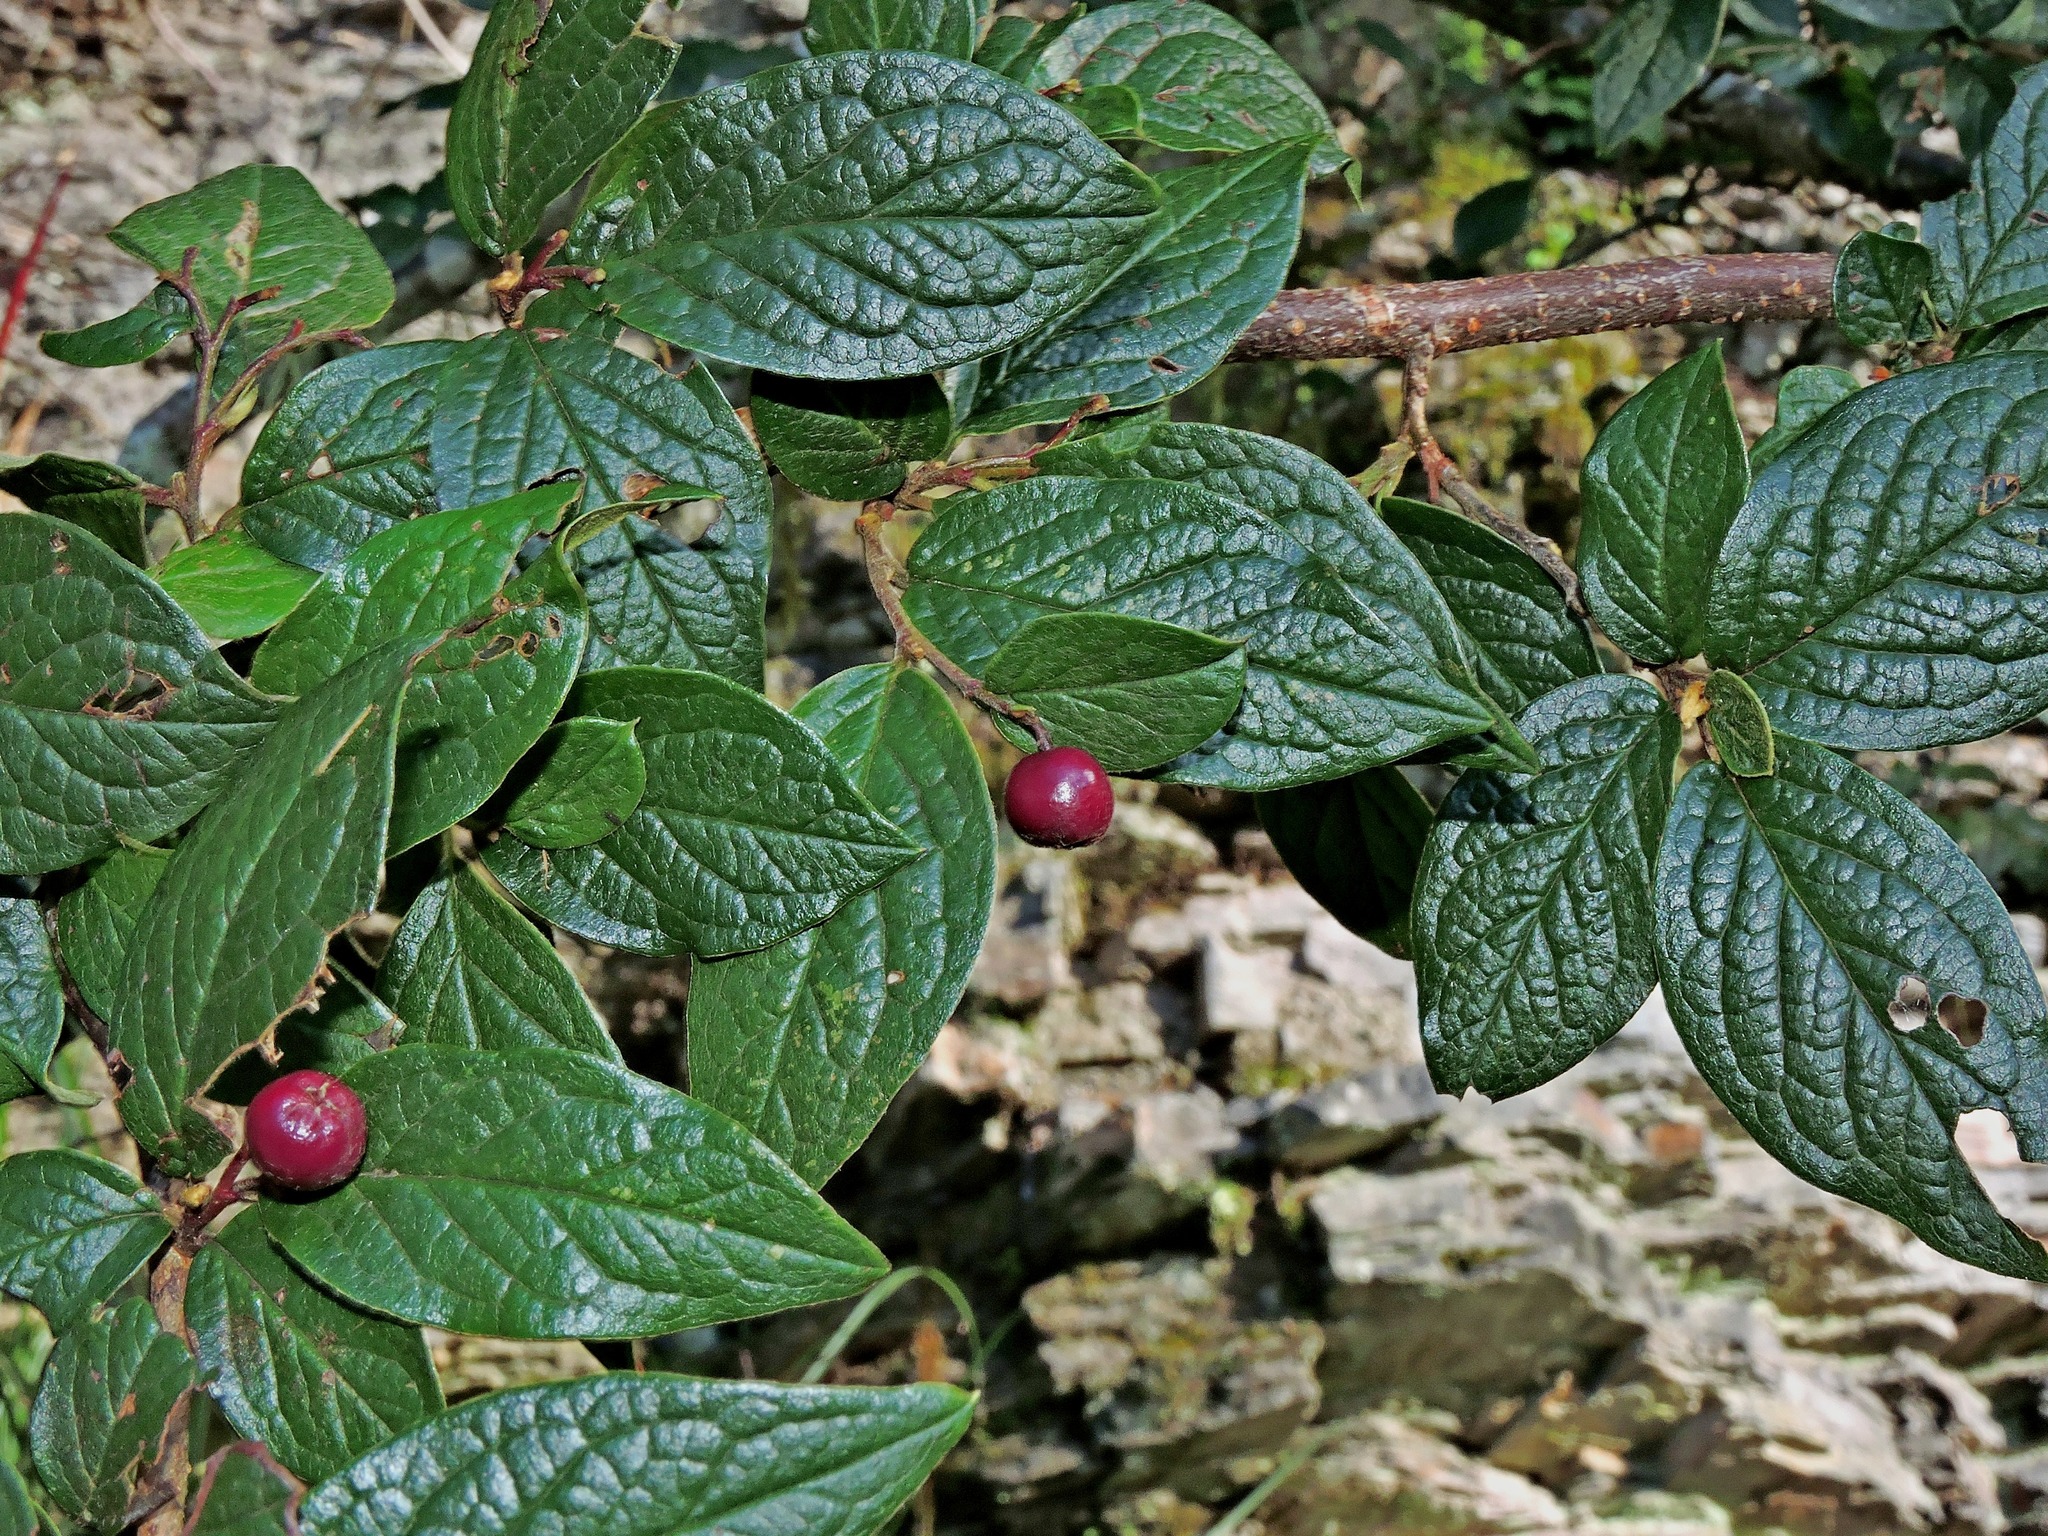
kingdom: Plantae
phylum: Tracheophyta
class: Magnoliopsida
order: Rosales
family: Rosaceae
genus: Cotoneaster
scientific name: Cotoneaster bullatus
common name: Hollyberry cotoneaster
